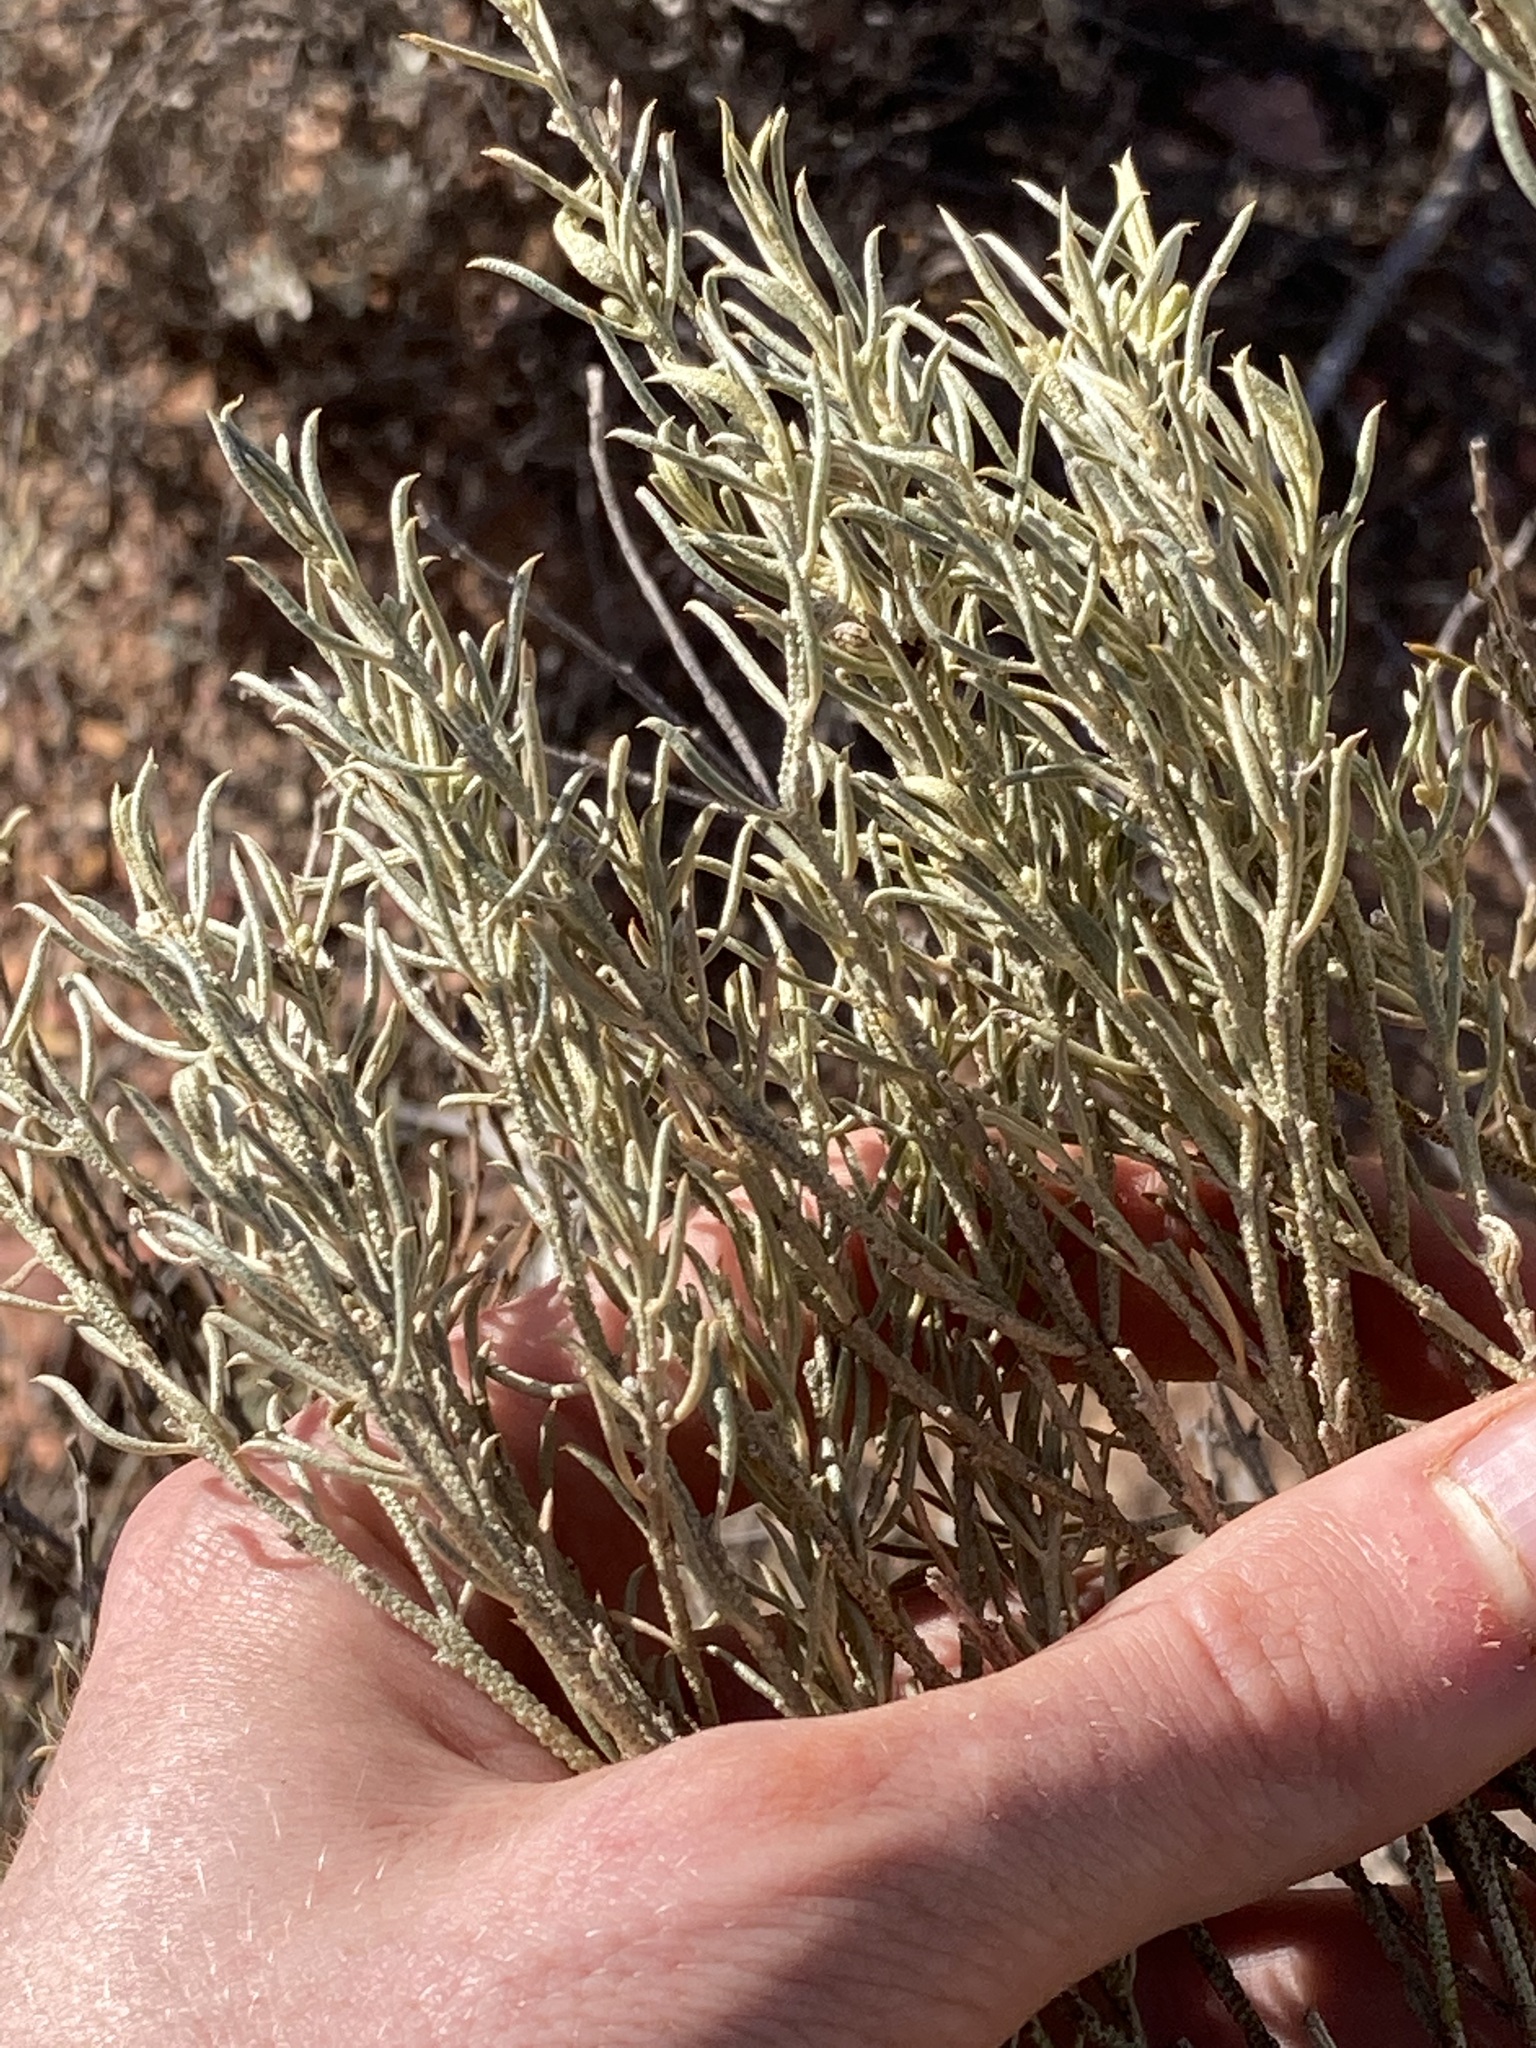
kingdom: Plantae
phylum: Tracheophyta
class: Magnoliopsida
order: Lamiales
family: Scrophulariaceae
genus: Eremophila
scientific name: Eremophila scoparia
